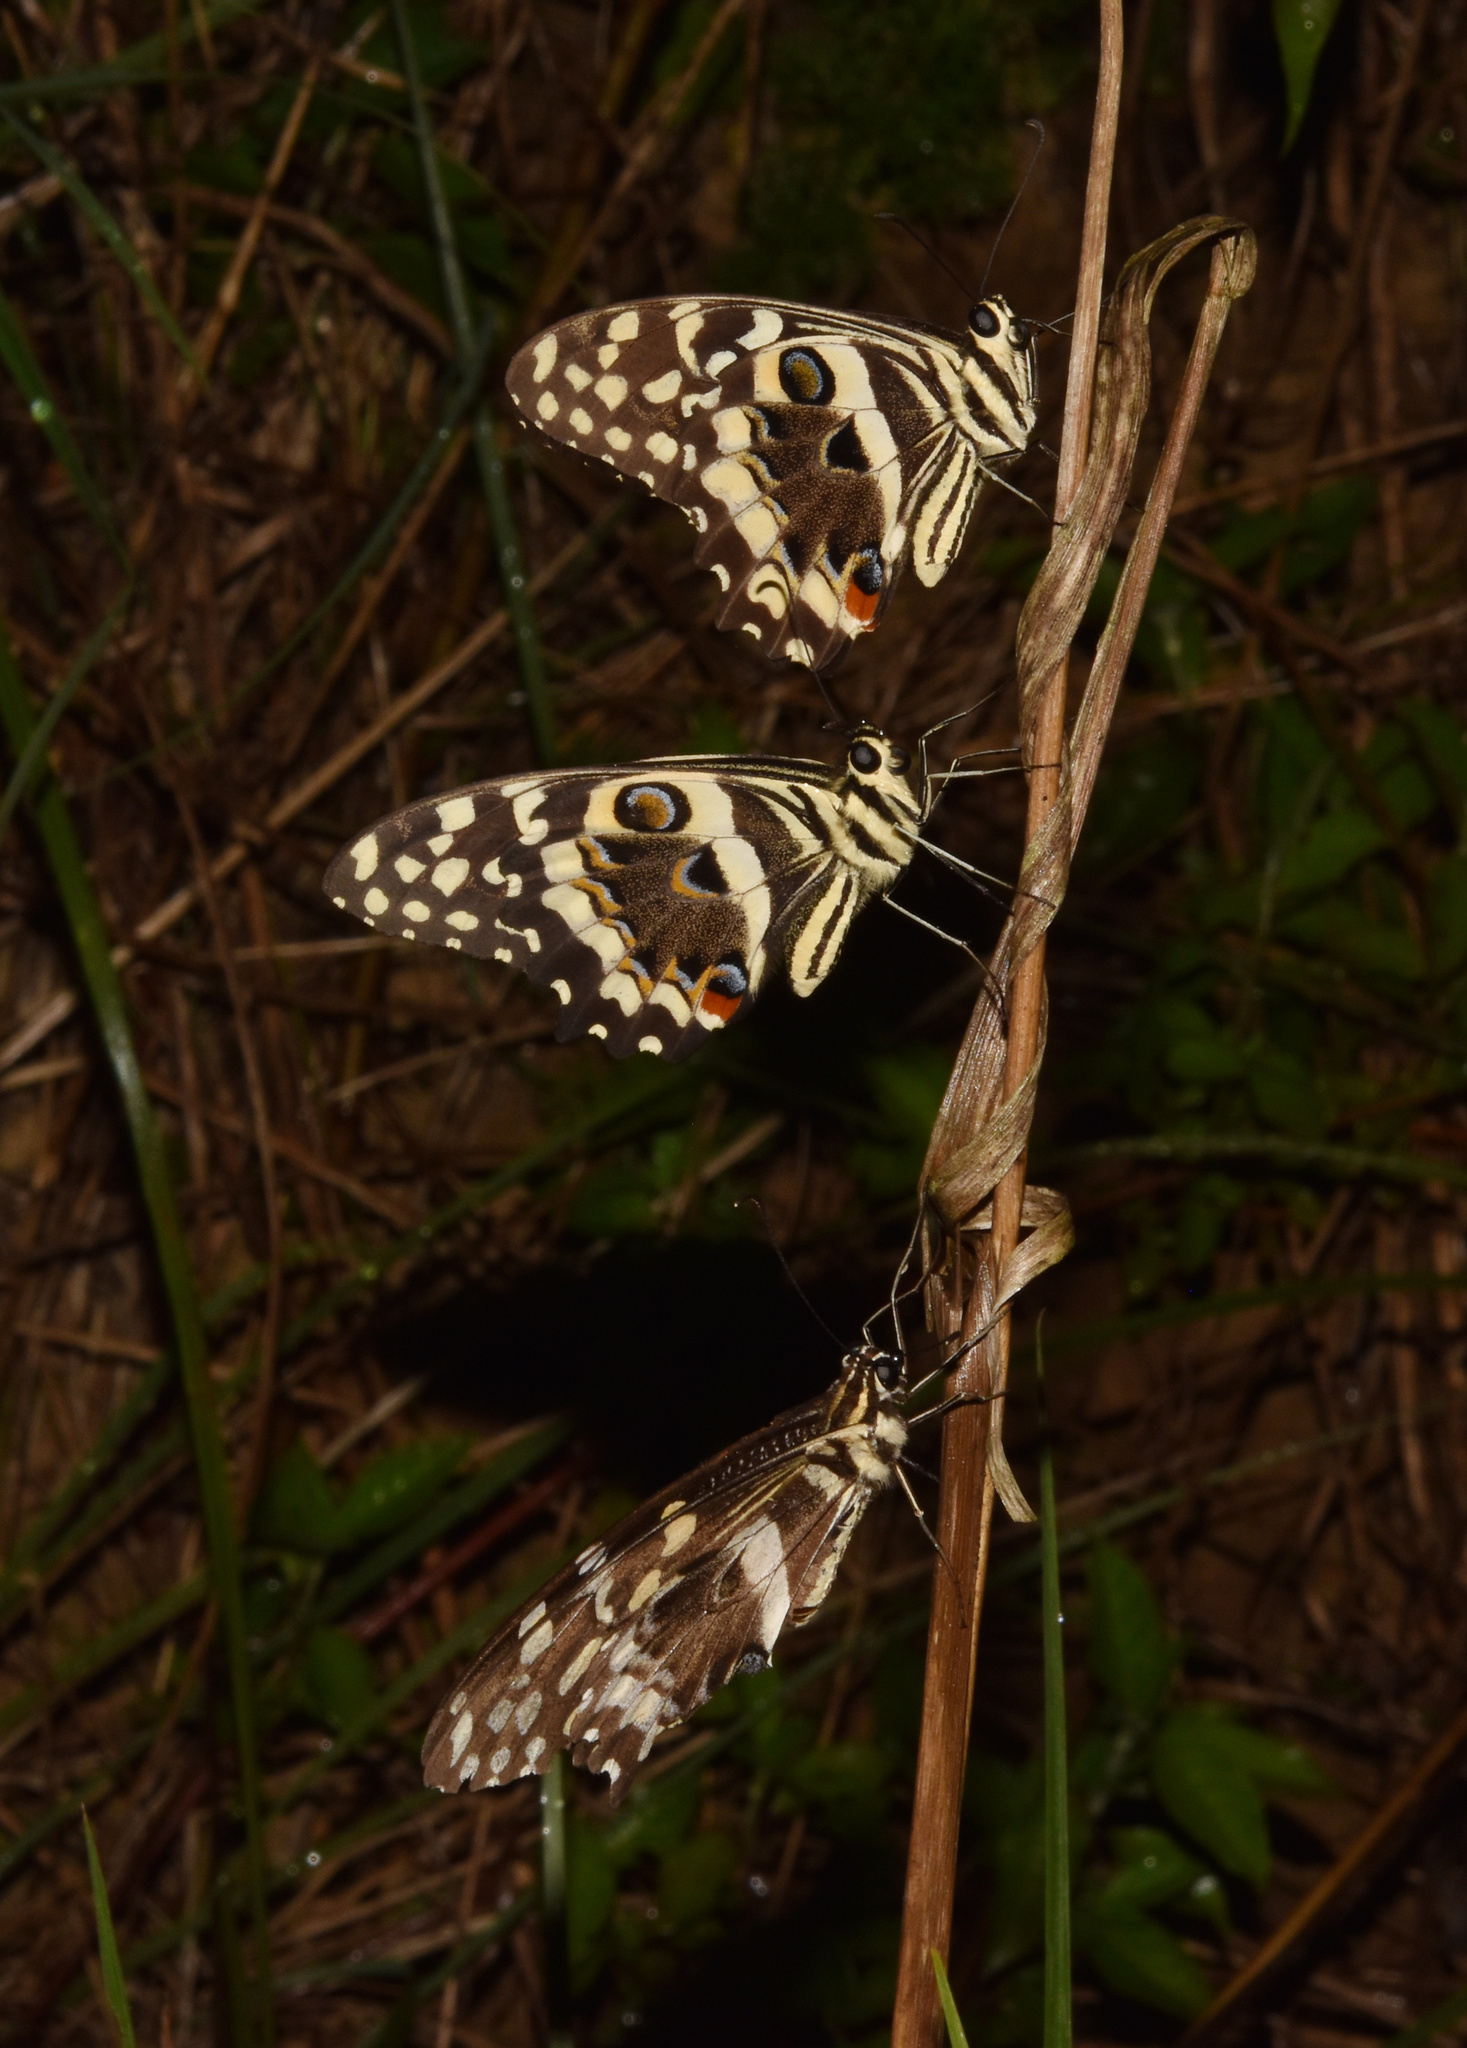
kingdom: Animalia
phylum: Arthropoda
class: Insecta
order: Lepidoptera
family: Papilionidae
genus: Papilio
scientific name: Papilio demodocus
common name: Christmas butterfly
